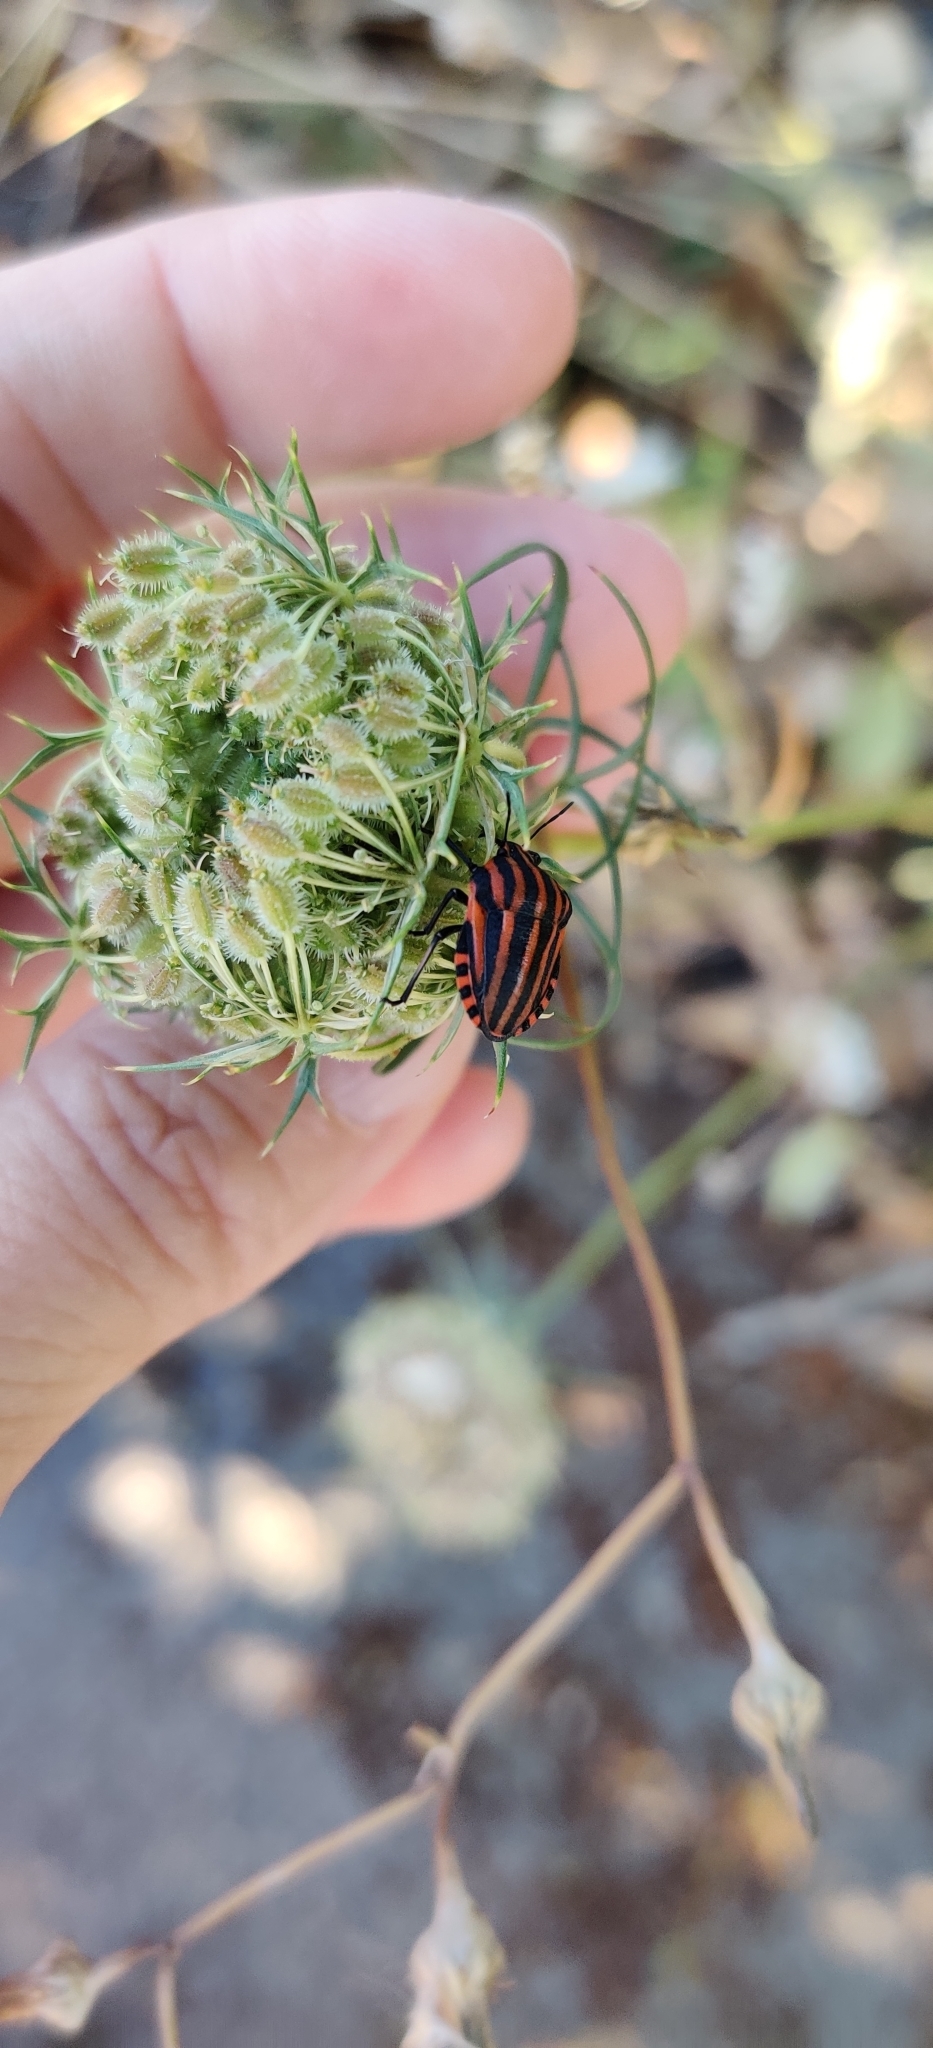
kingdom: Animalia
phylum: Arthropoda
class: Insecta
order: Hemiptera
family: Pentatomidae
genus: Graphosoma
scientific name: Graphosoma italicum
